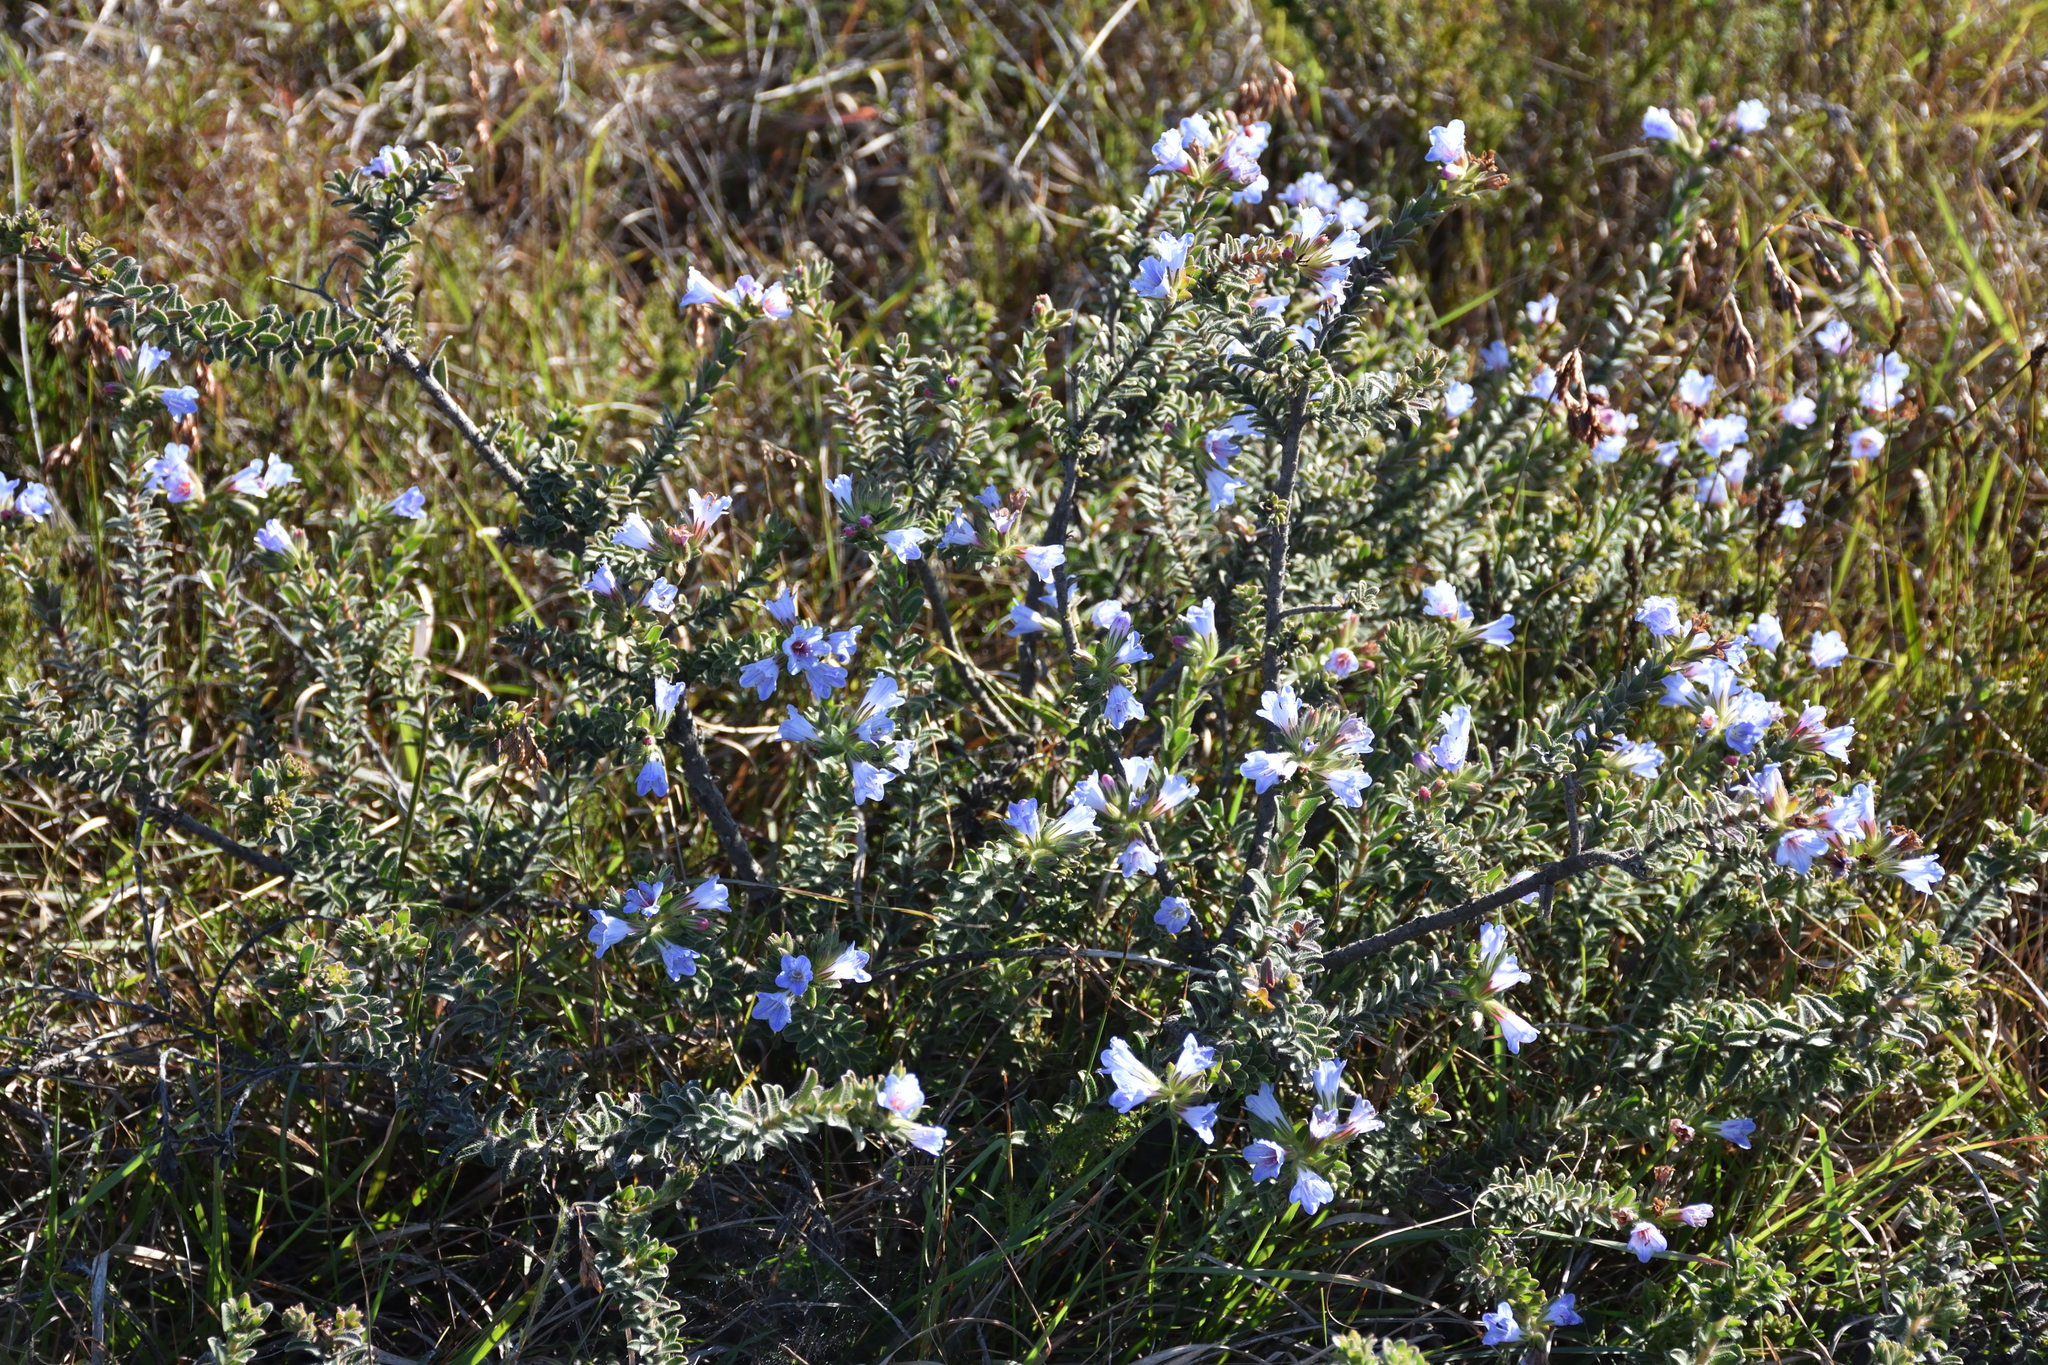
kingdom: Plantae
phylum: Tracheophyta
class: Magnoliopsida
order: Boraginales
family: Boraginaceae
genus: Lobostemon
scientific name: Lobostemon trigonus
